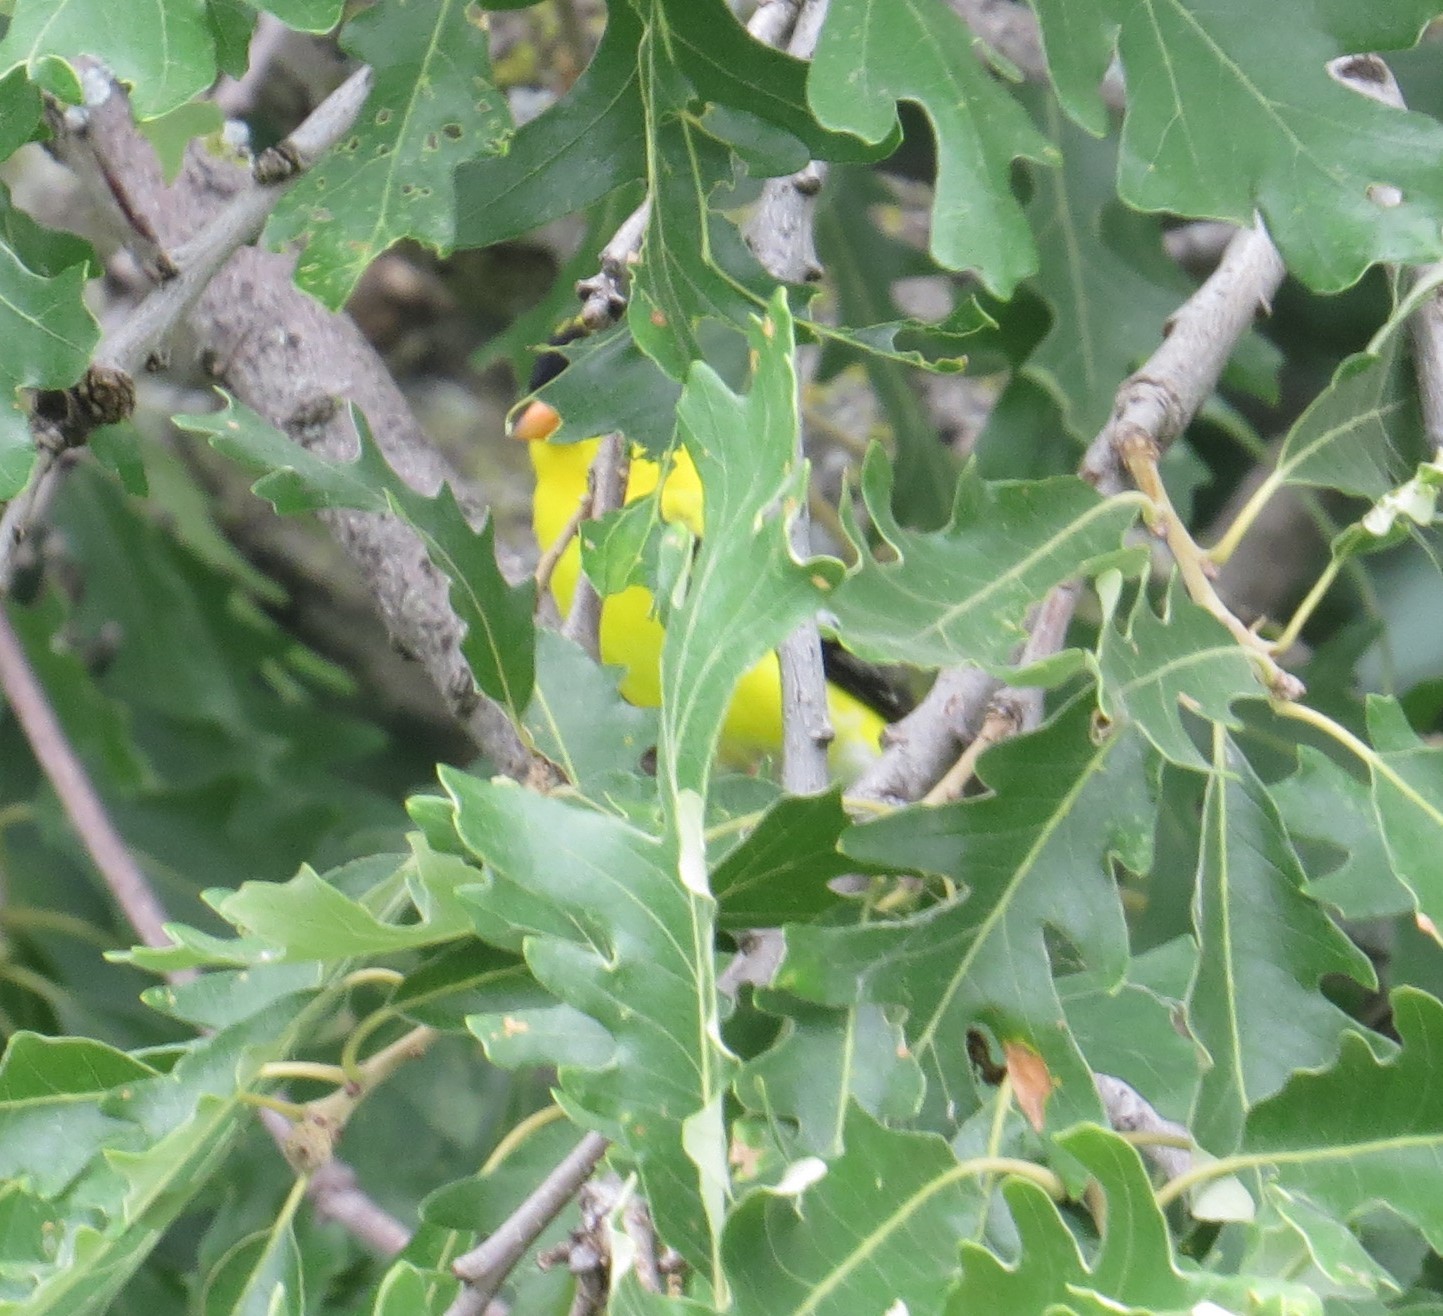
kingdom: Animalia
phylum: Chordata
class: Aves
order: Passeriformes
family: Fringillidae
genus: Spinus
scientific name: Spinus tristis
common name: American goldfinch
